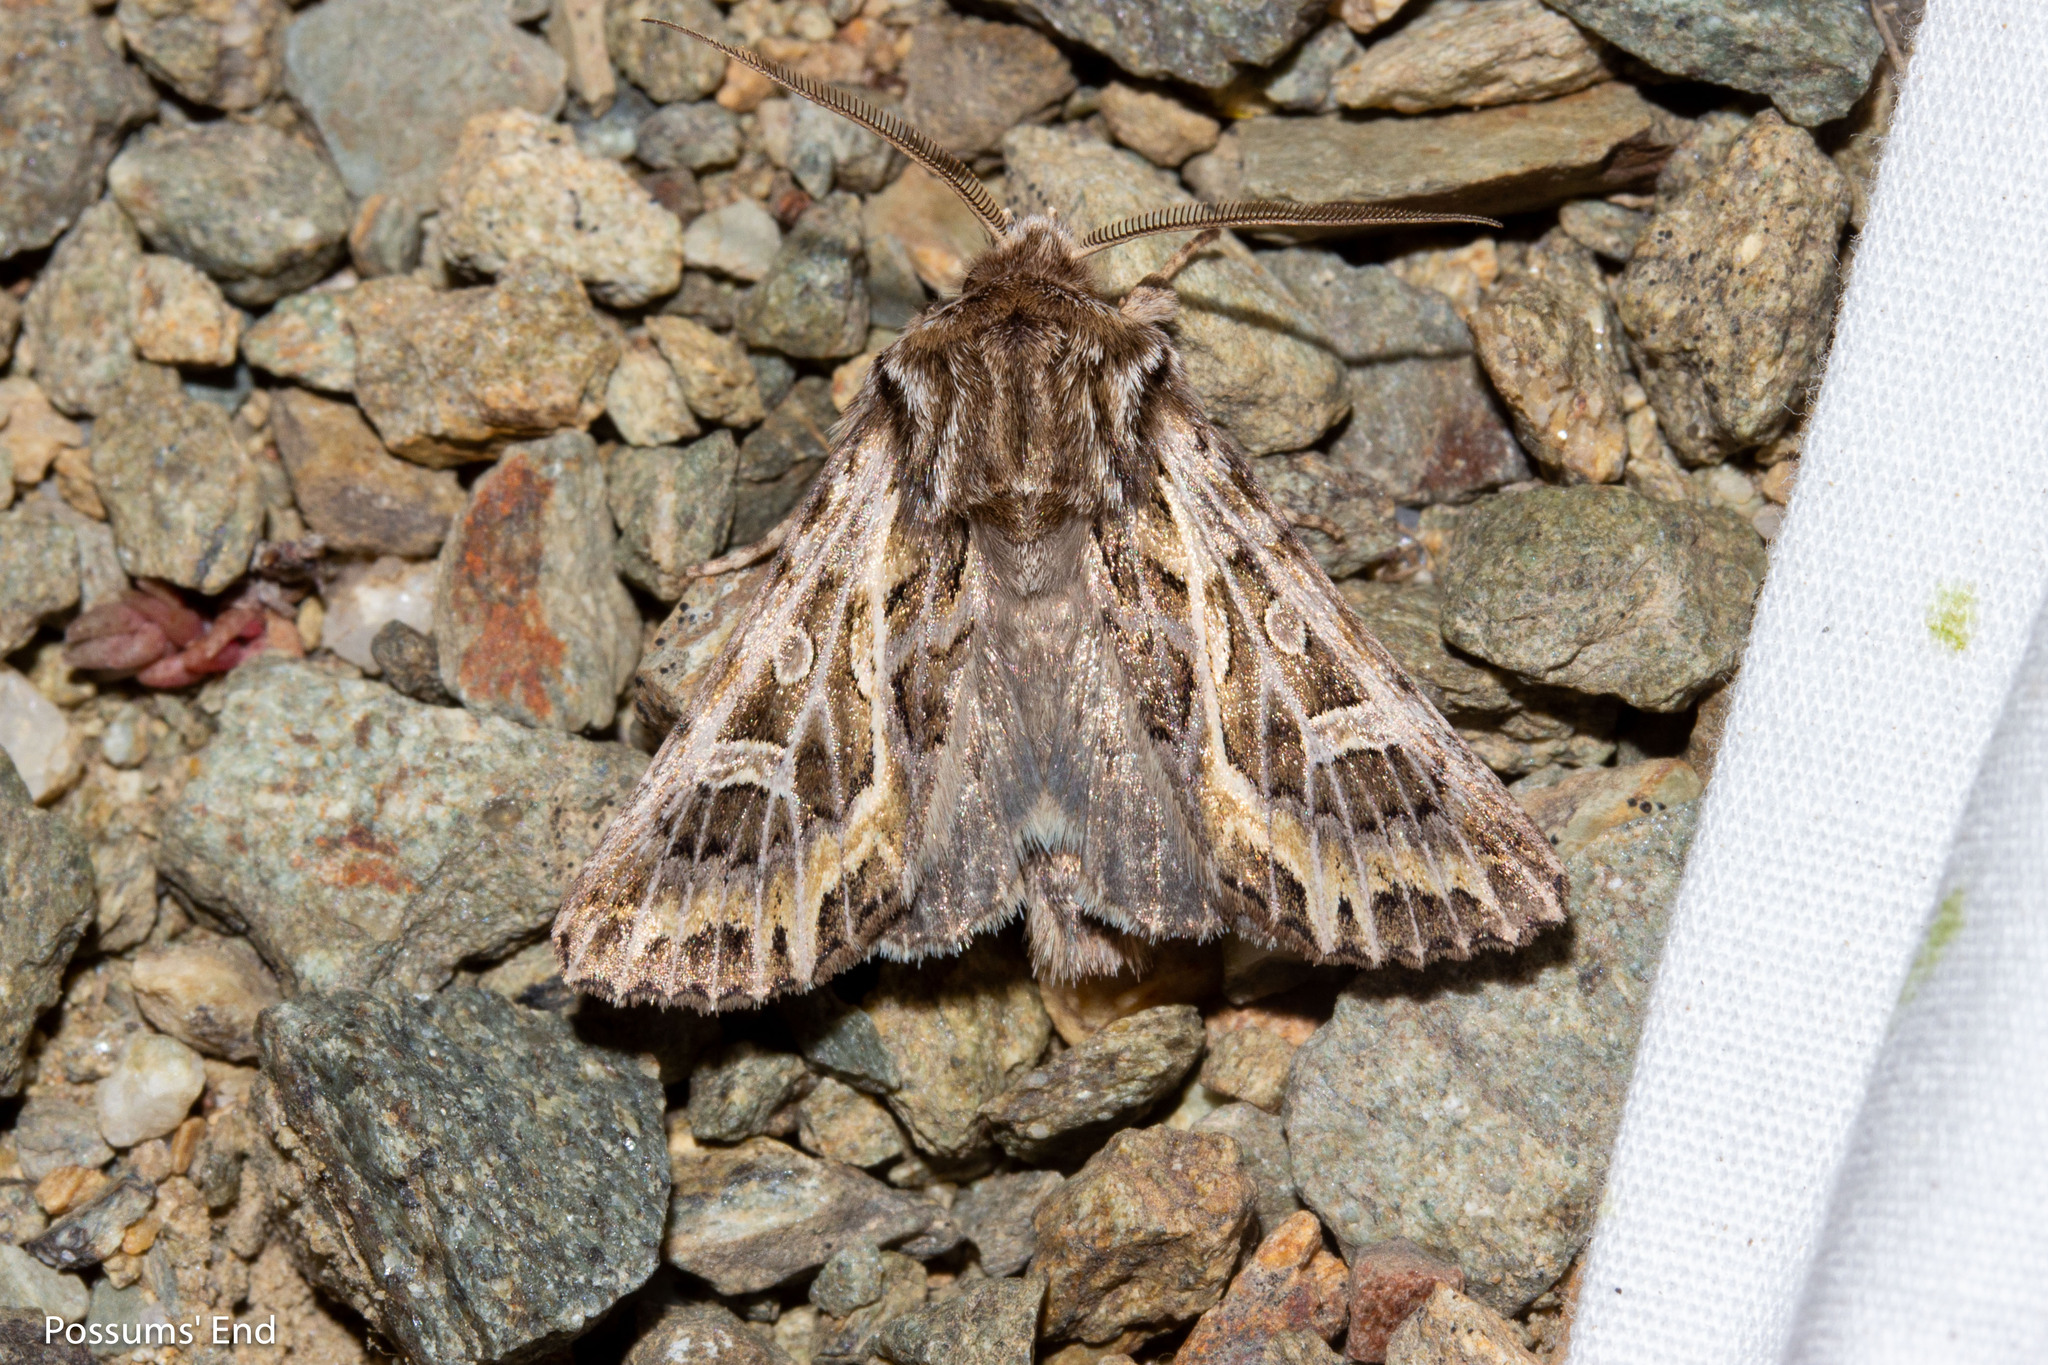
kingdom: Animalia
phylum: Arthropoda
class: Insecta
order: Lepidoptera
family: Noctuidae
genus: Ichneutica
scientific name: Ichneutica
